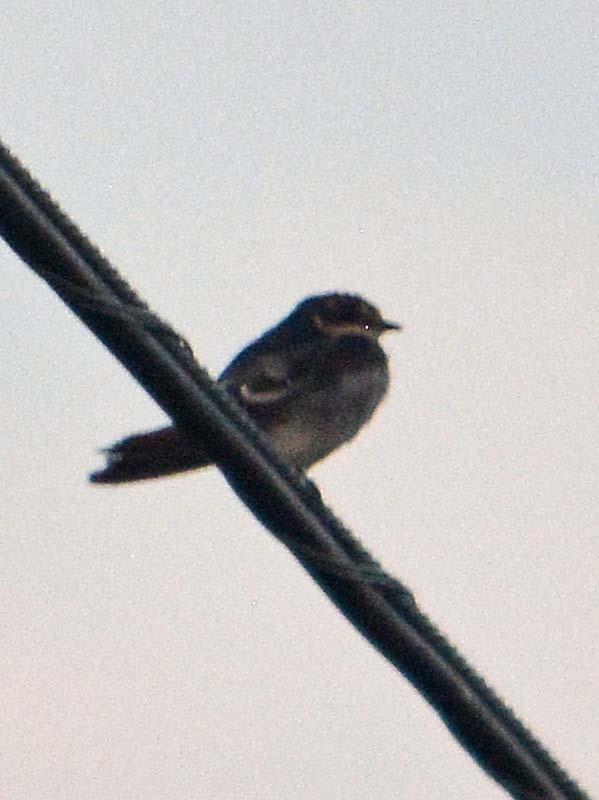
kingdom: Animalia
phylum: Chordata
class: Aves
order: Passeriformes
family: Hirundinidae
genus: Tachycineta
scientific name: Tachycineta albilinea
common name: Mangrove swallow
